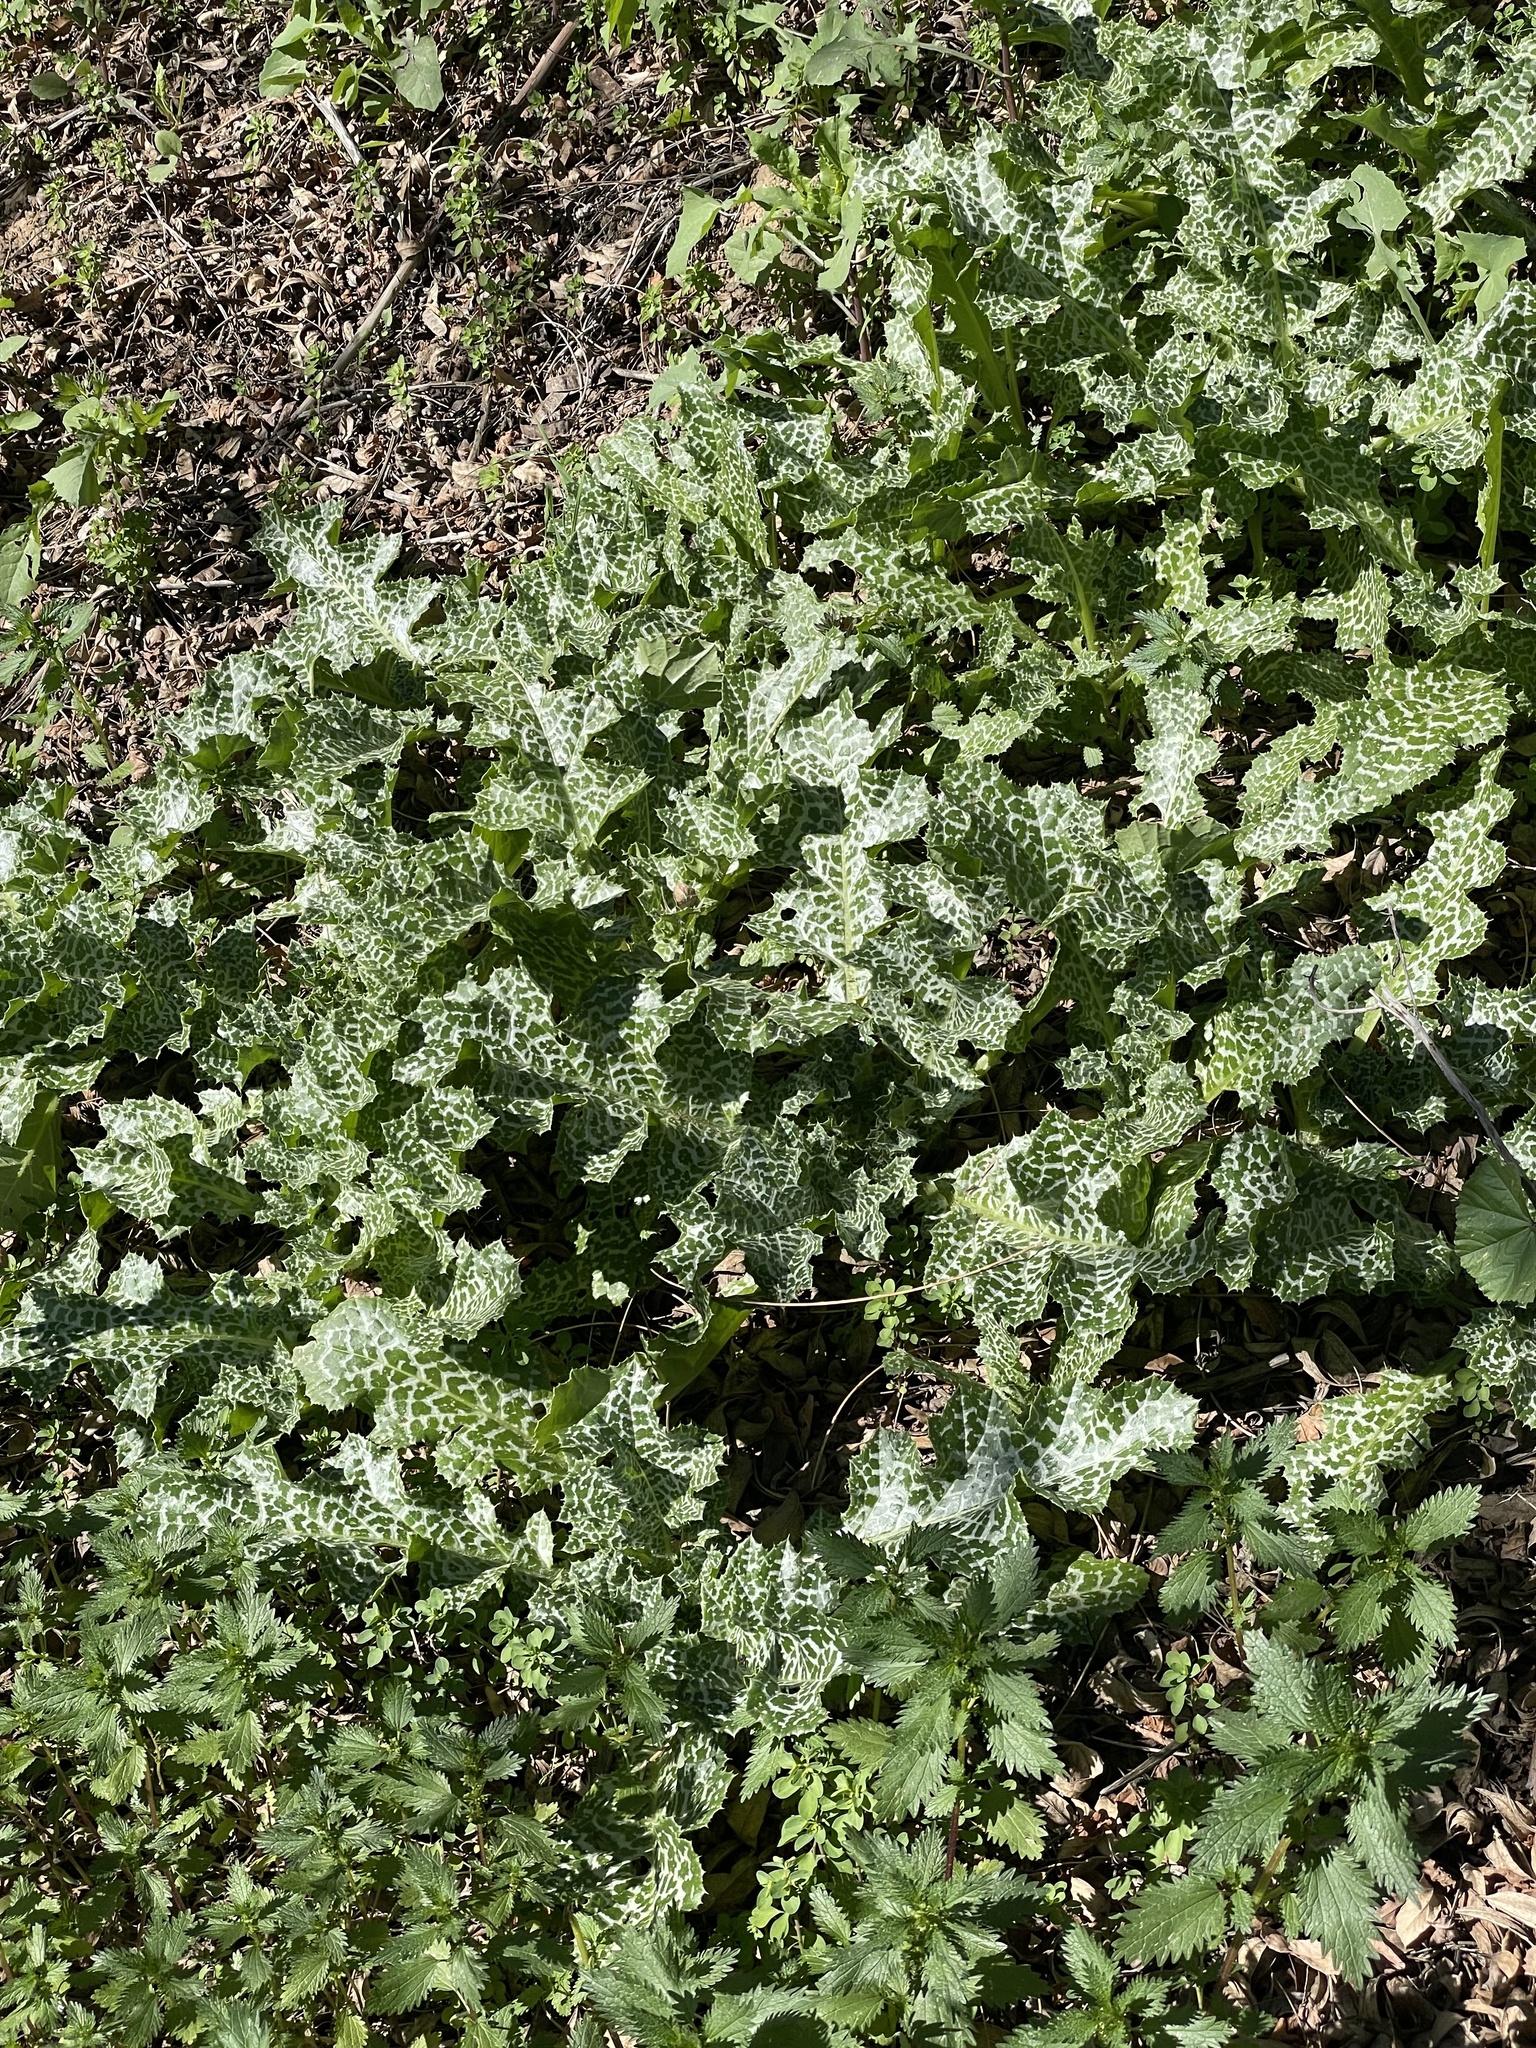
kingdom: Plantae
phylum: Tracheophyta
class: Magnoliopsida
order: Asterales
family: Asteraceae
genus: Silybum
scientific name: Silybum marianum
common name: Milk thistle
